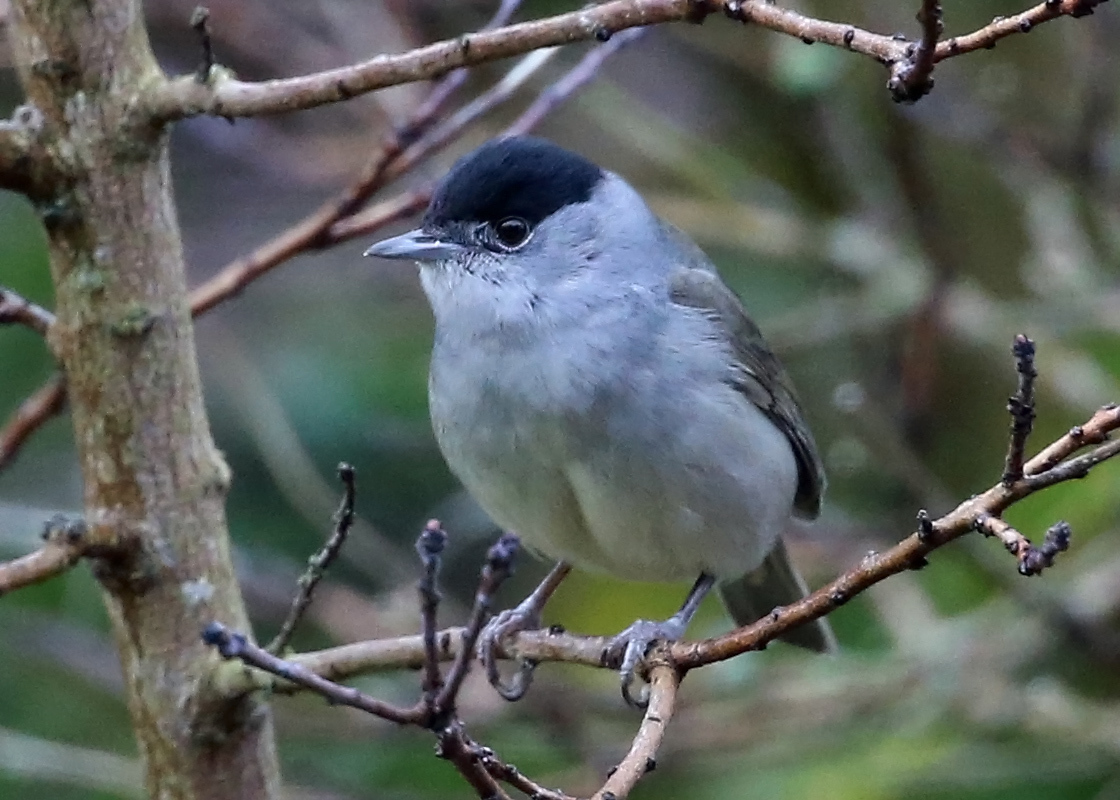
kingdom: Animalia
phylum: Chordata
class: Aves
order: Passeriformes
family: Sylviidae
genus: Sylvia
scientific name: Sylvia atricapilla
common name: Eurasian blackcap
